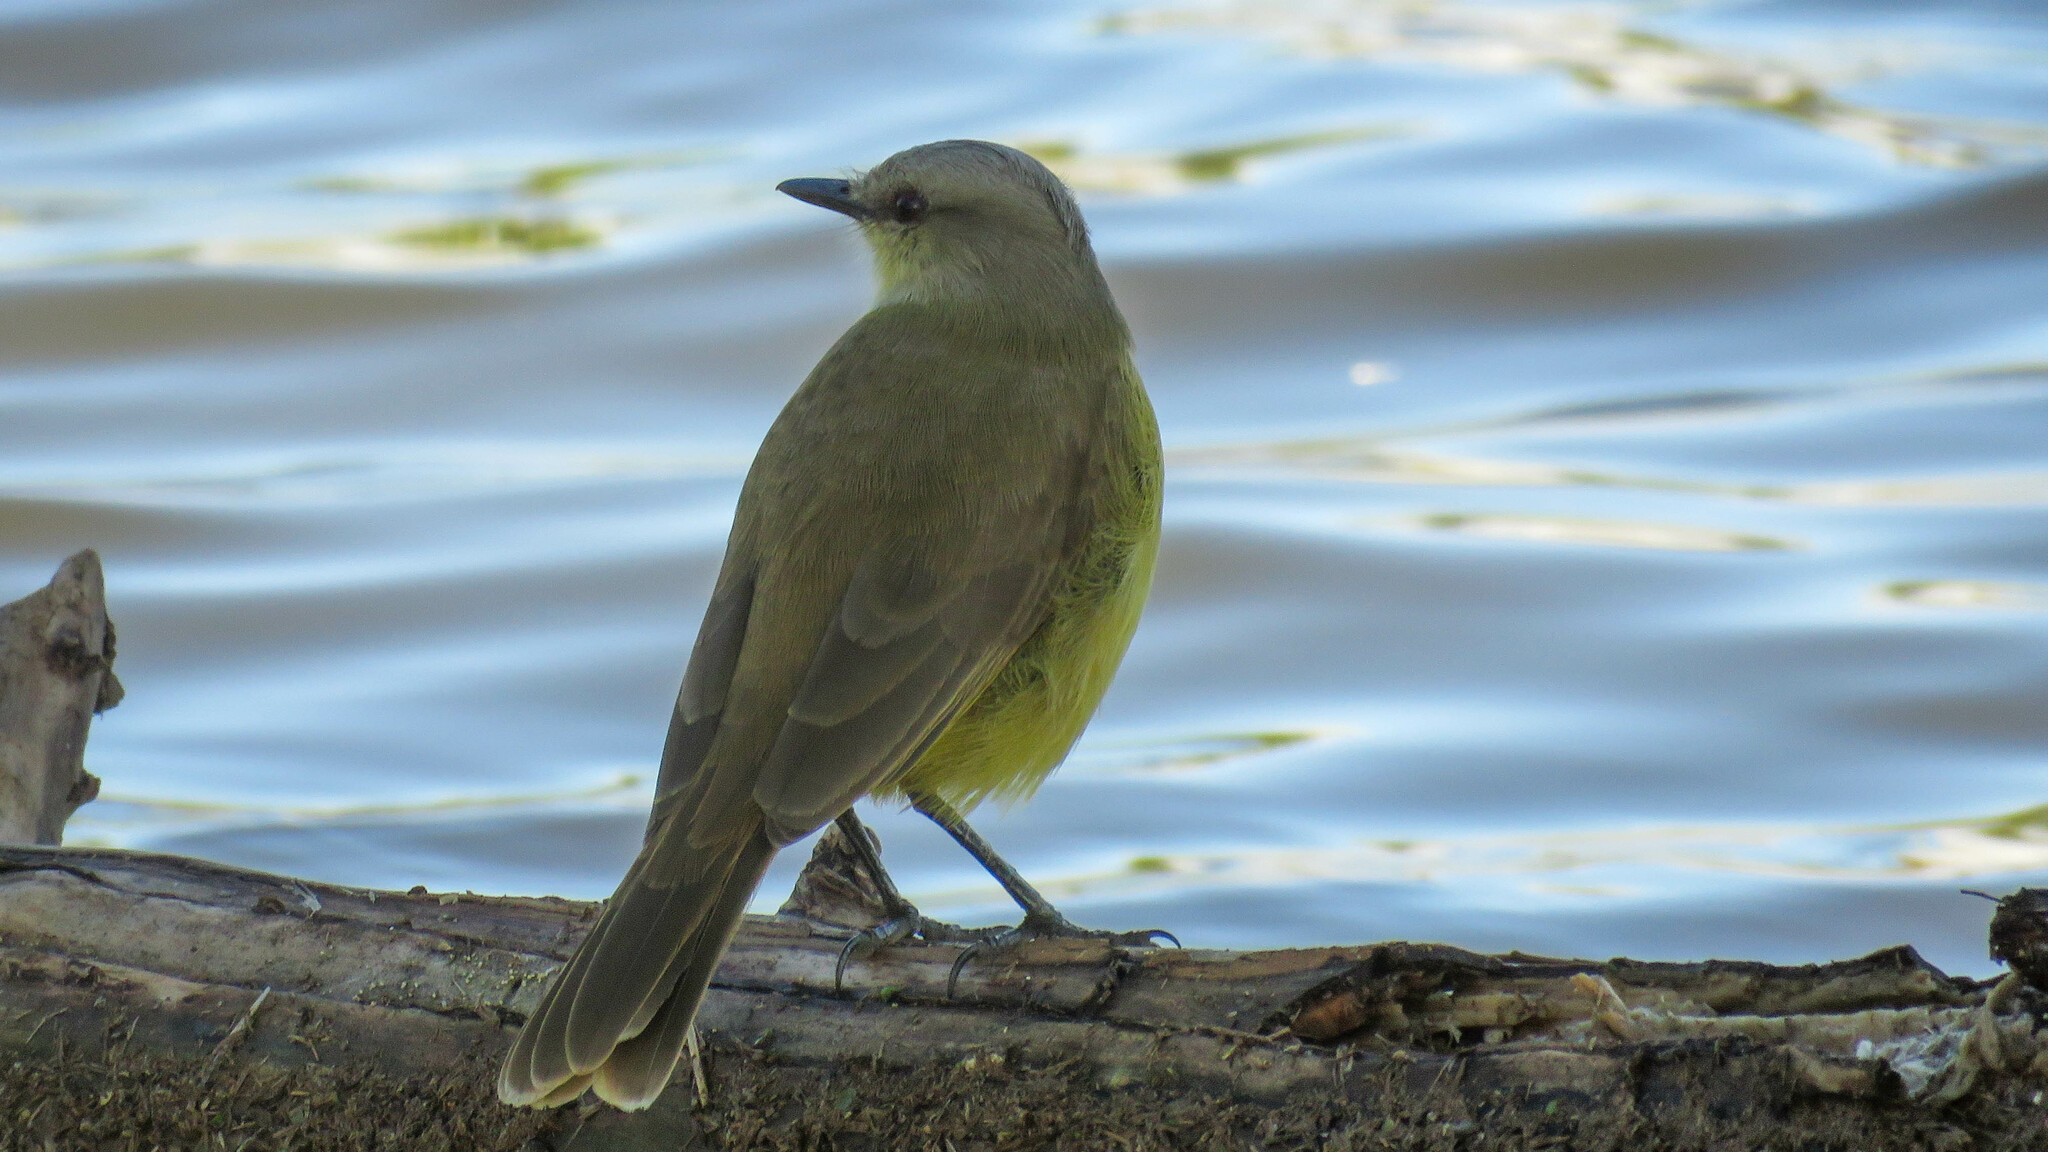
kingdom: Animalia
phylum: Chordata
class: Aves
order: Passeriformes
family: Tyrannidae
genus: Machetornis
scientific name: Machetornis rixosa
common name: Cattle tyrant
